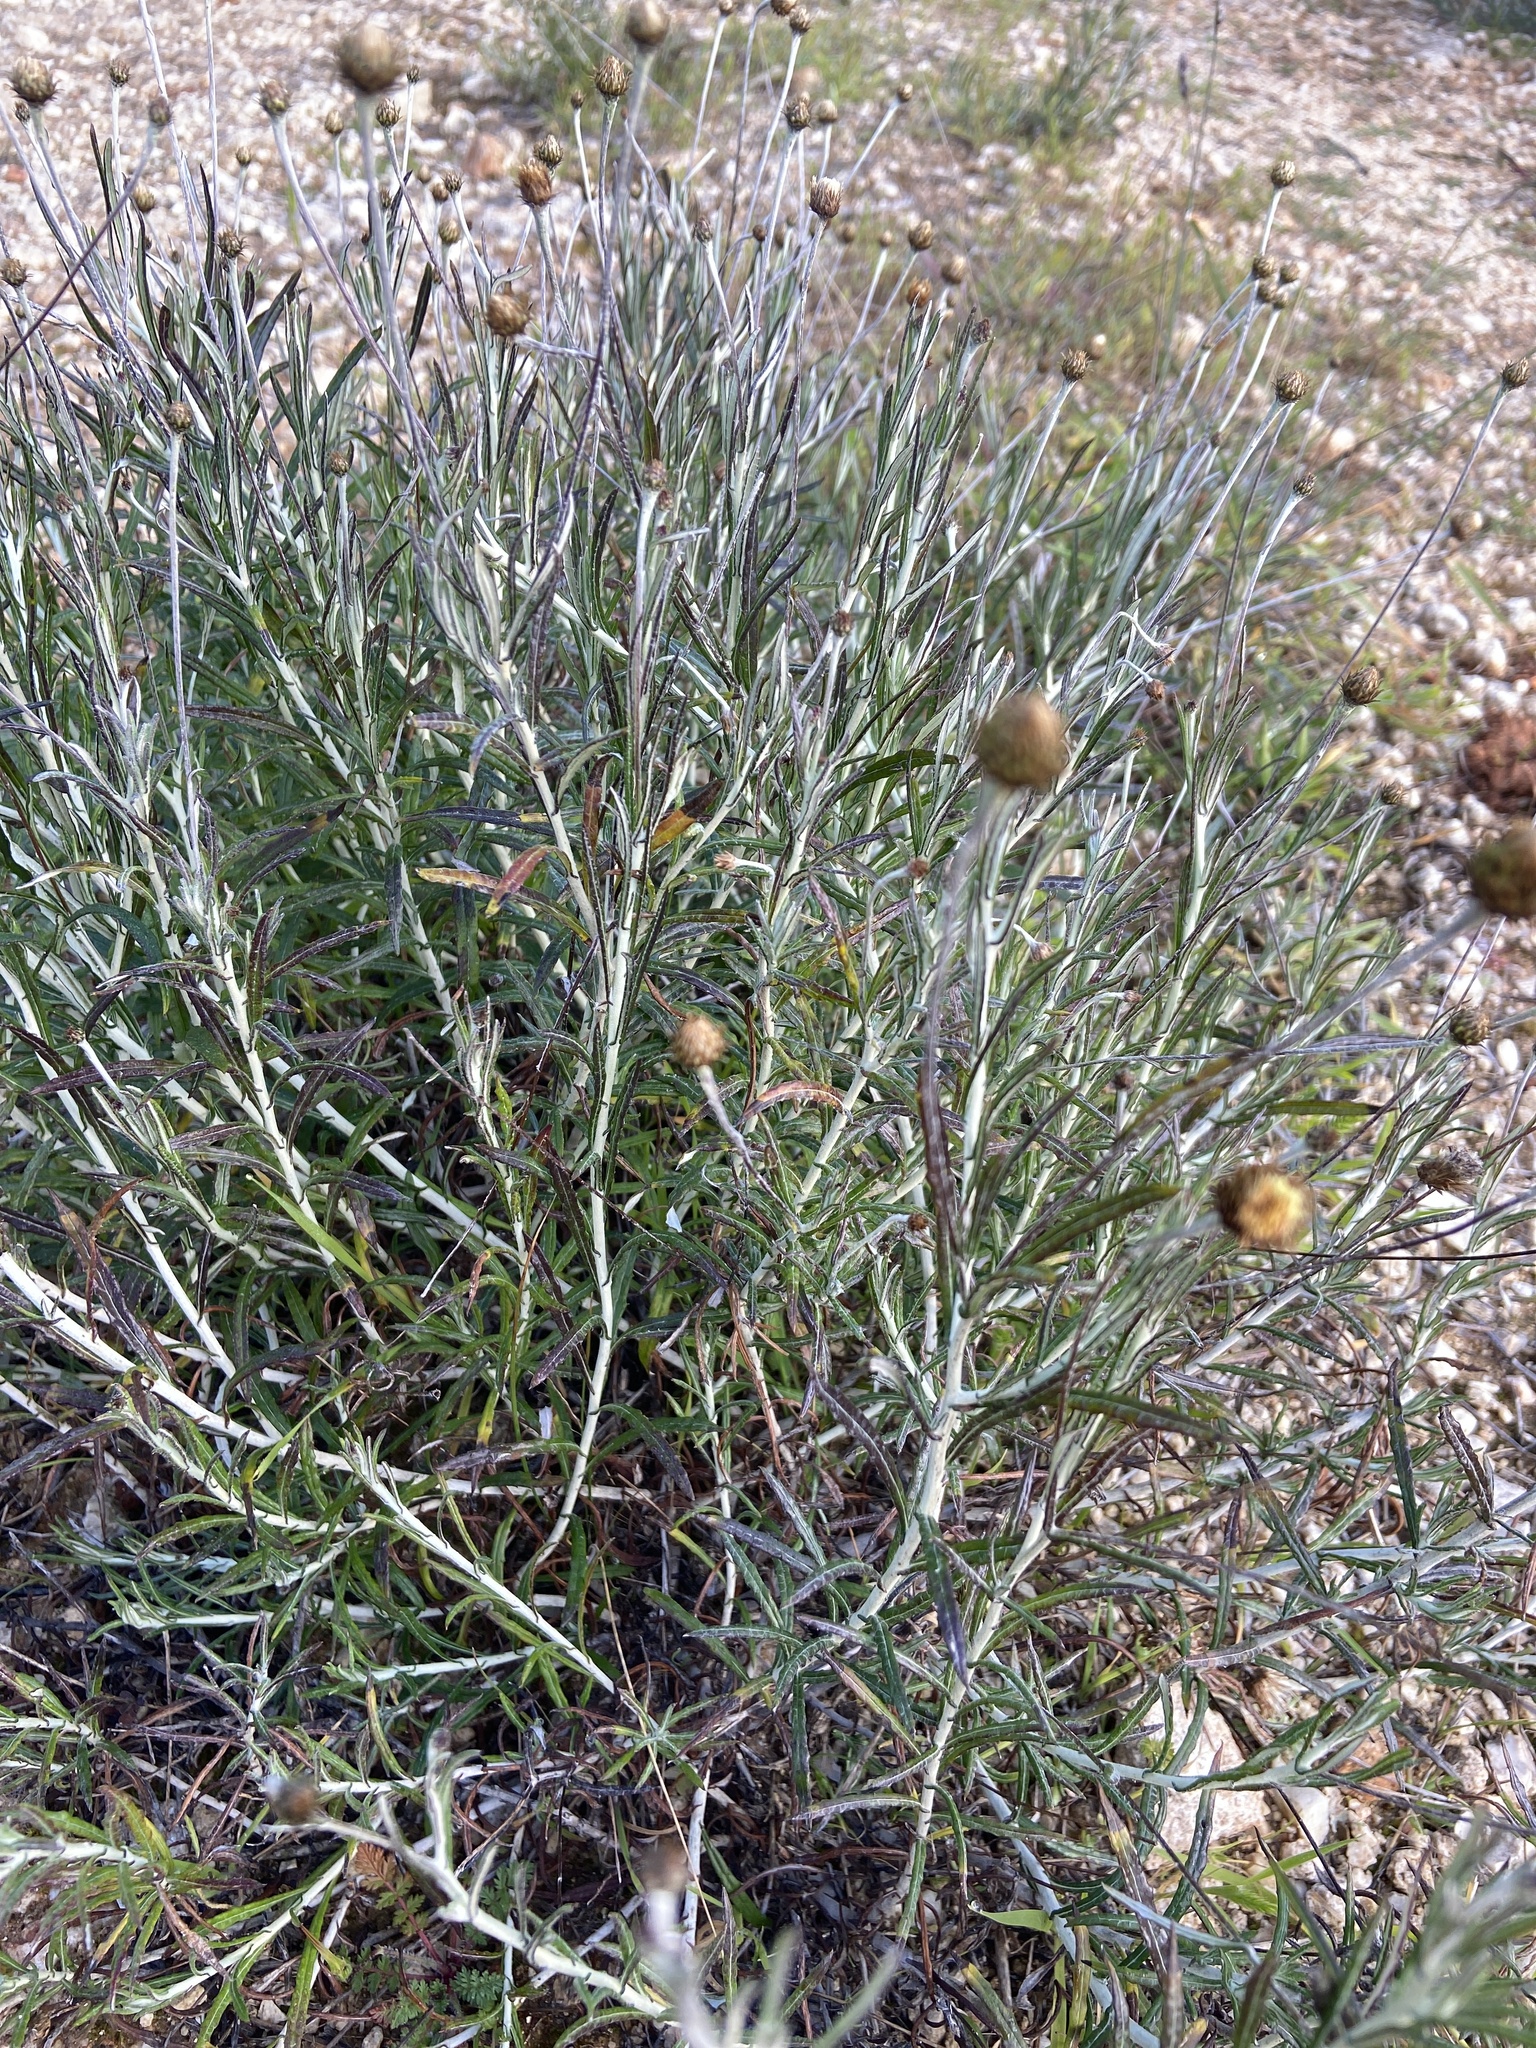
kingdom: Plantae
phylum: Tracheophyta
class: Magnoliopsida
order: Asterales
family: Asteraceae
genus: Phagnalon
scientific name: Phagnalon saxatile
